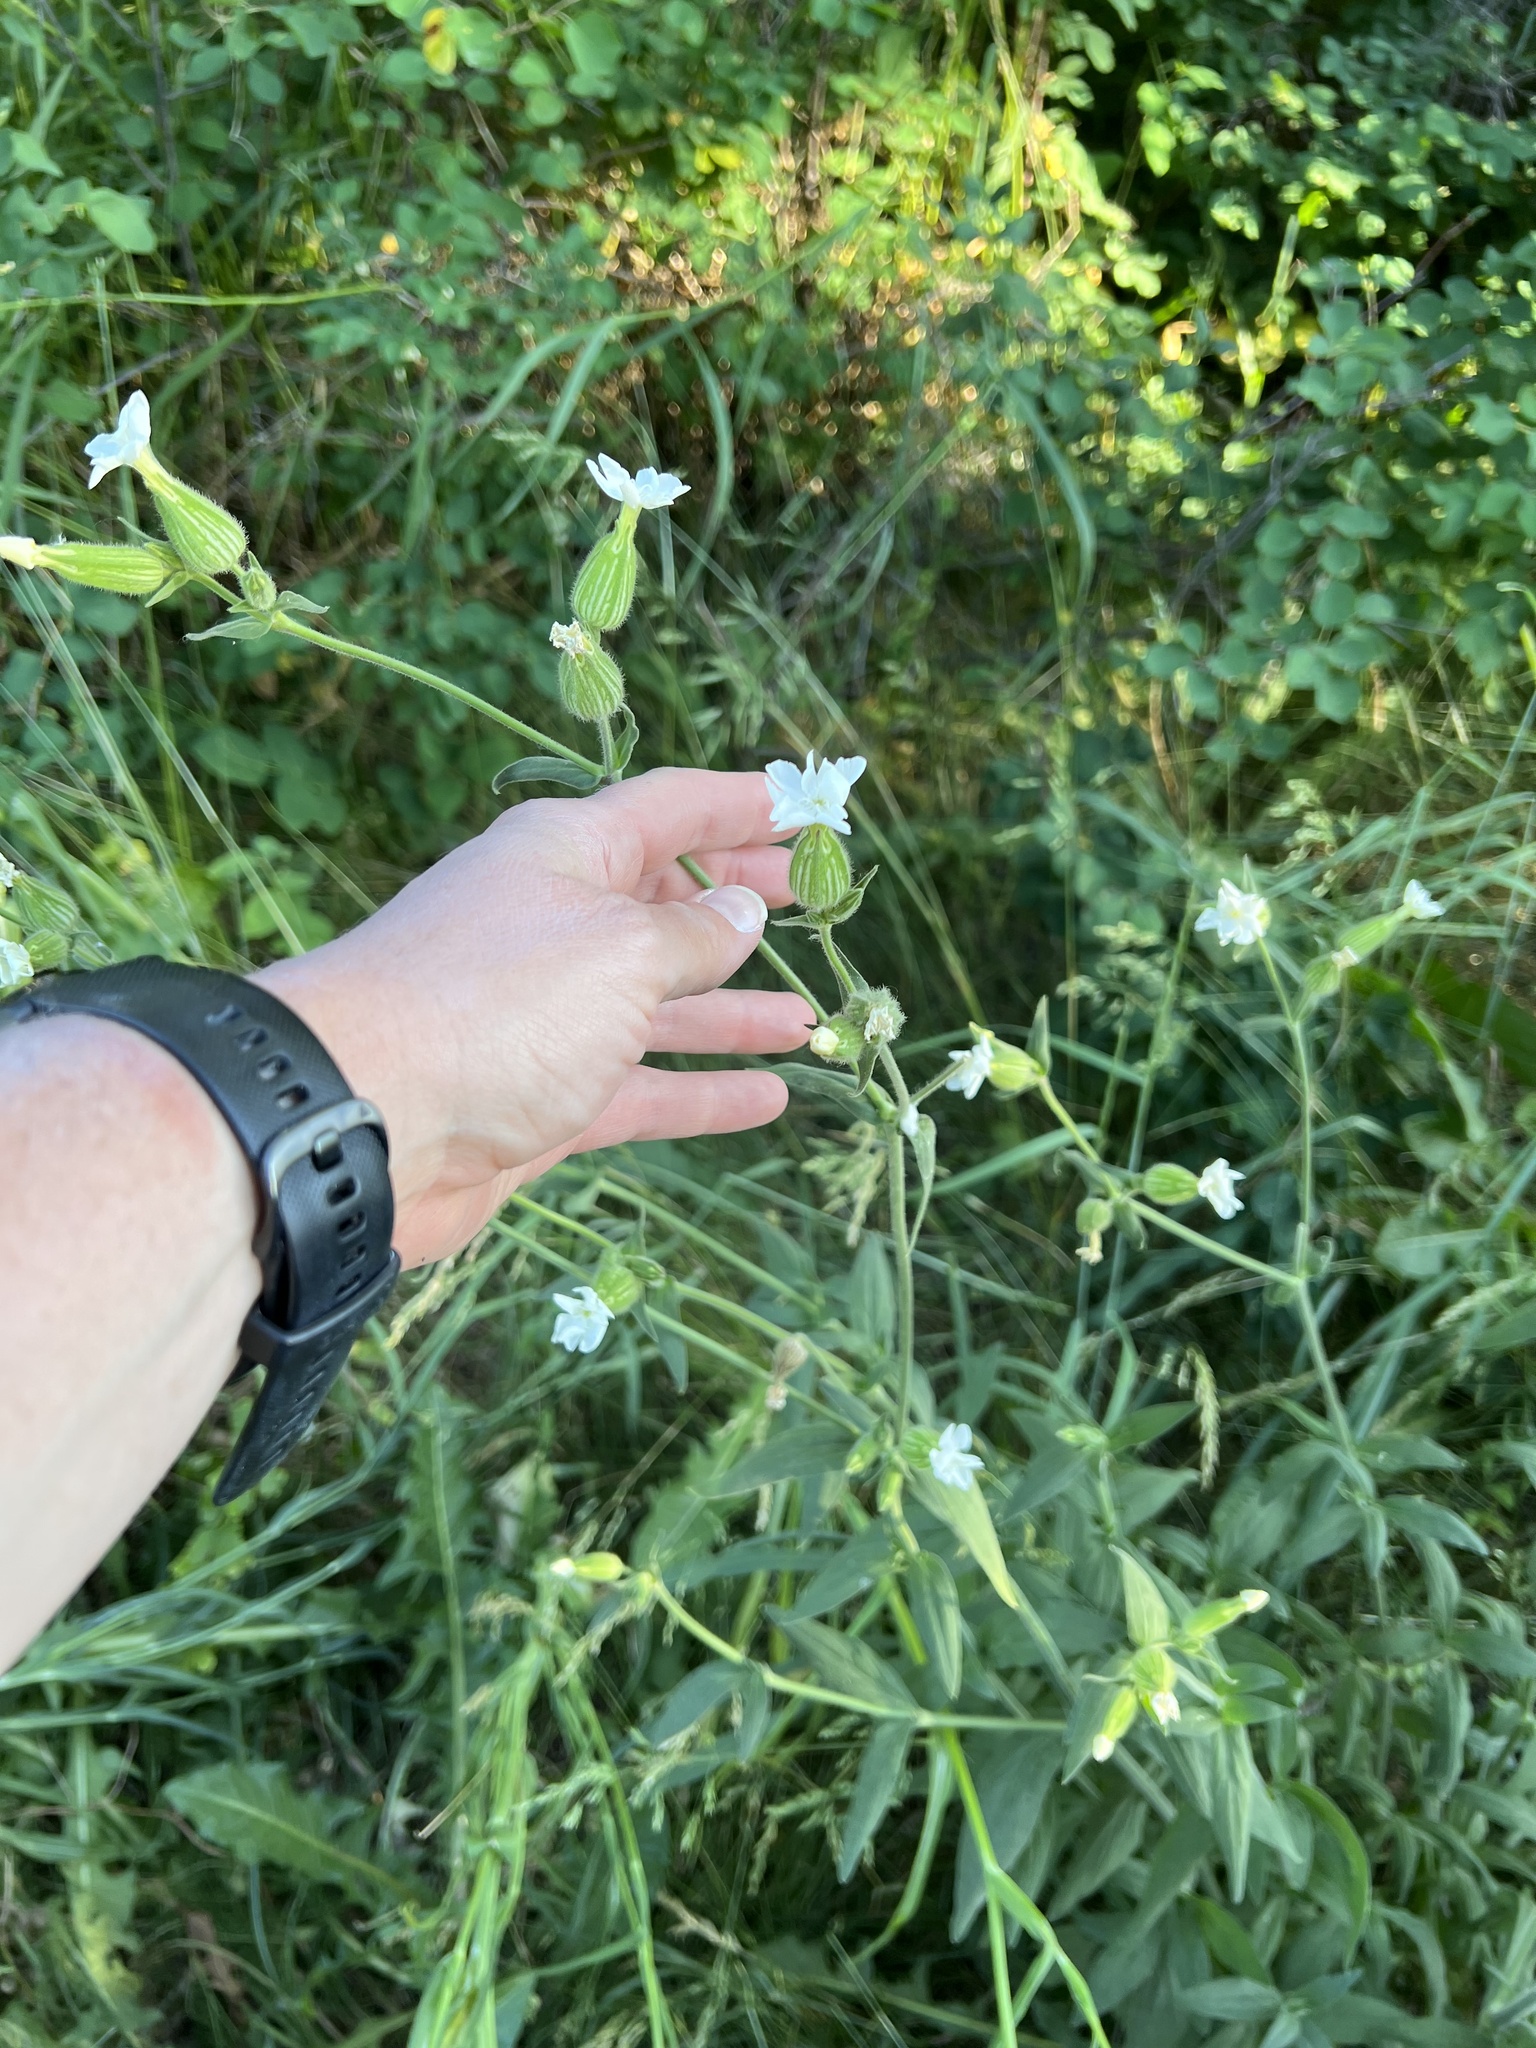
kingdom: Plantae
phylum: Tracheophyta
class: Magnoliopsida
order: Caryophyllales
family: Caryophyllaceae
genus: Silene
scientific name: Silene latifolia
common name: White campion
